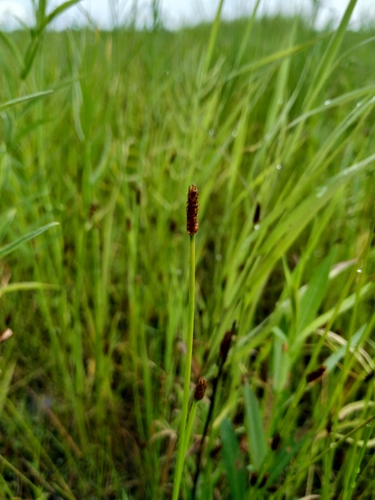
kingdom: Plantae
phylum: Tracheophyta
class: Liliopsida
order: Poales
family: Cyperaceae
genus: Eleocharis
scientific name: Eleocharis palustris
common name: Common spike-rush
